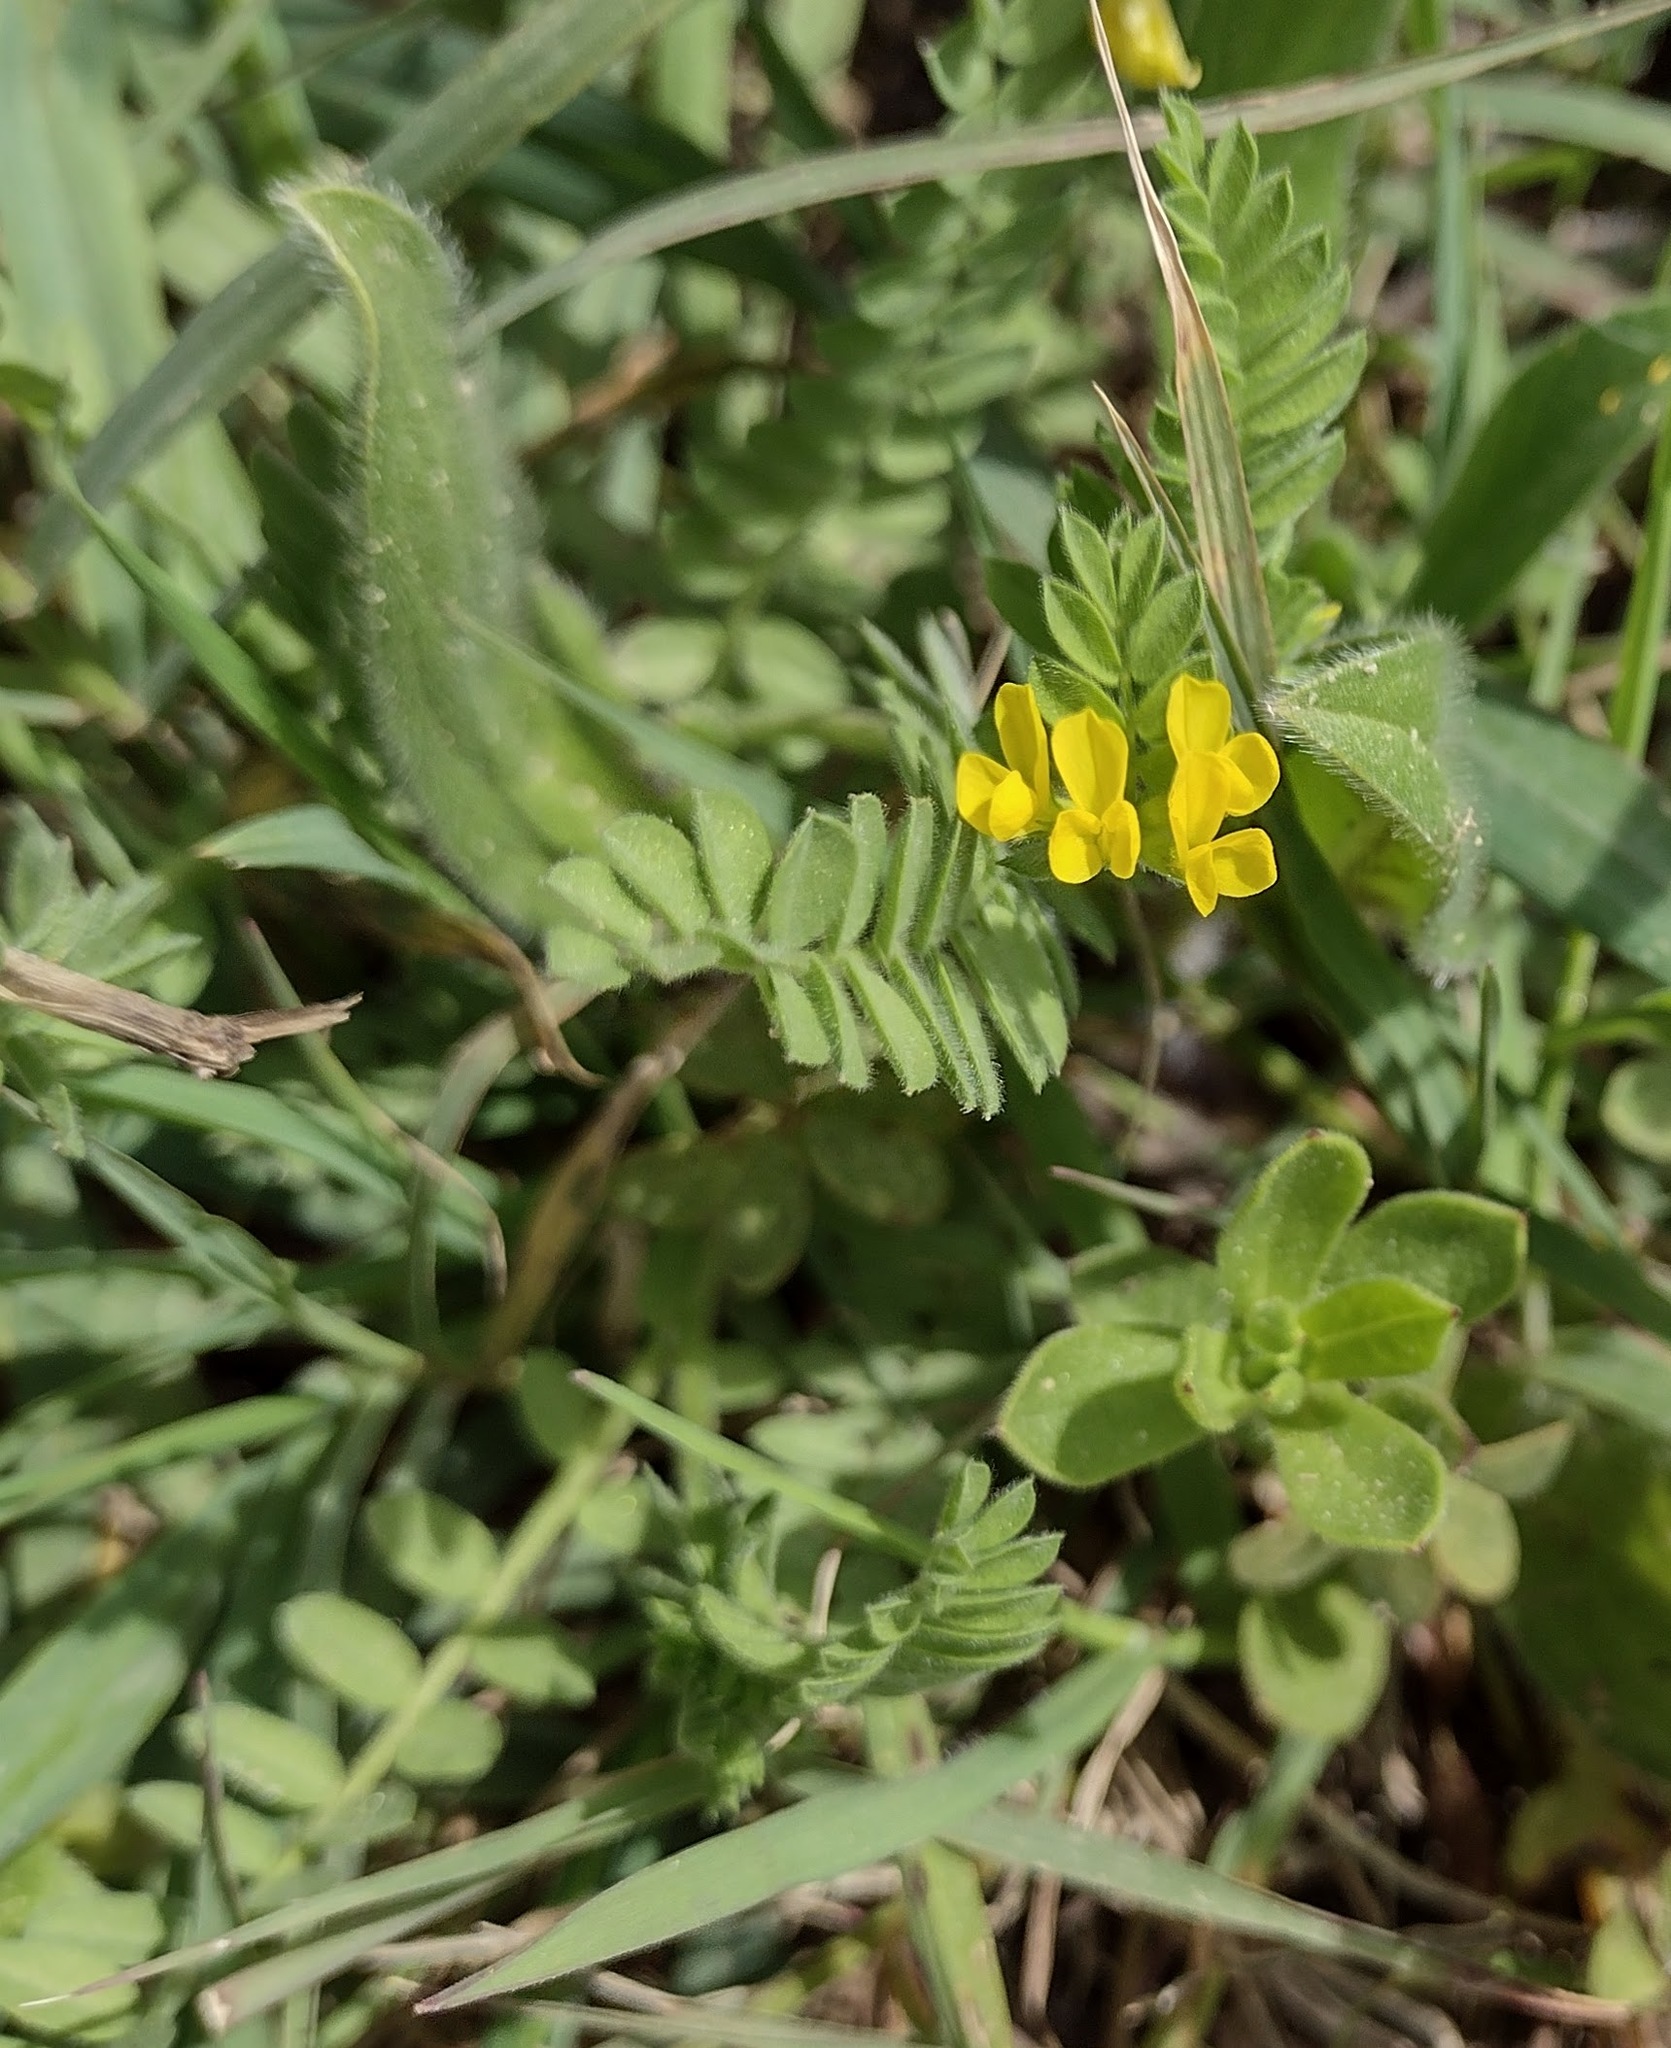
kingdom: Plantae
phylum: Tracheophyta
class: Magnoliopsida
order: Fabales
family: Fabaceae
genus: Ornithopus
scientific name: Ornithopus compressus
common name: Yellow serradella
